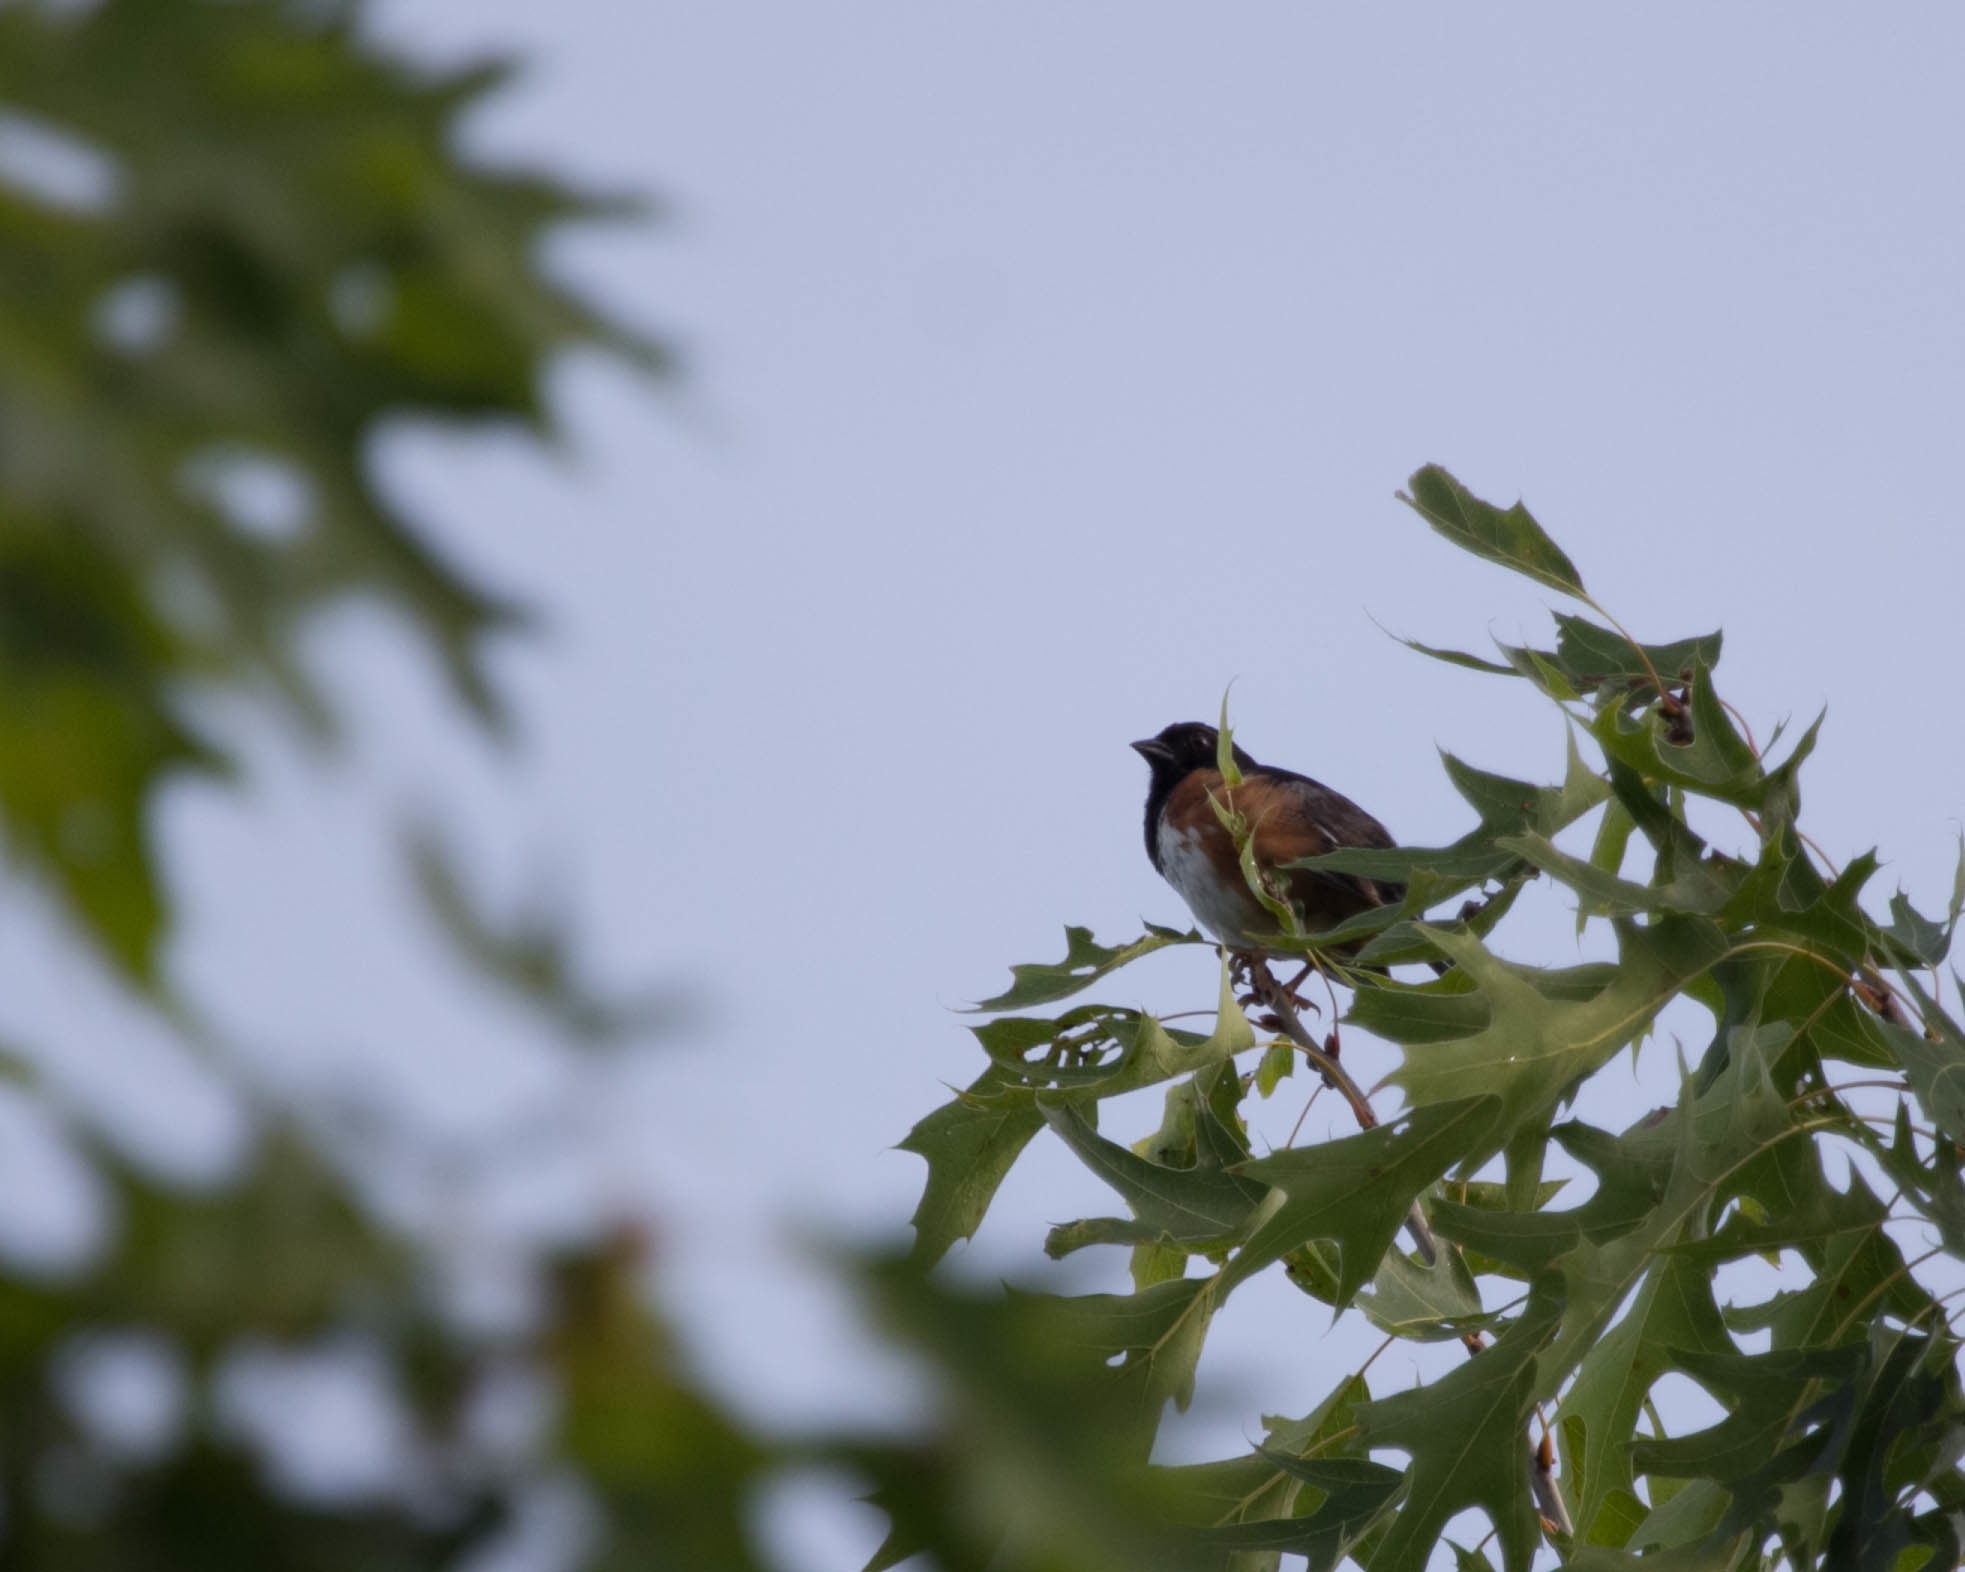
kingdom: Animalia
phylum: Chordata
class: Aves
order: Passeriformes
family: Passerellidae
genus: Pipilo
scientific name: Pipilo erythrophthalmus
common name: Eastern towhee
